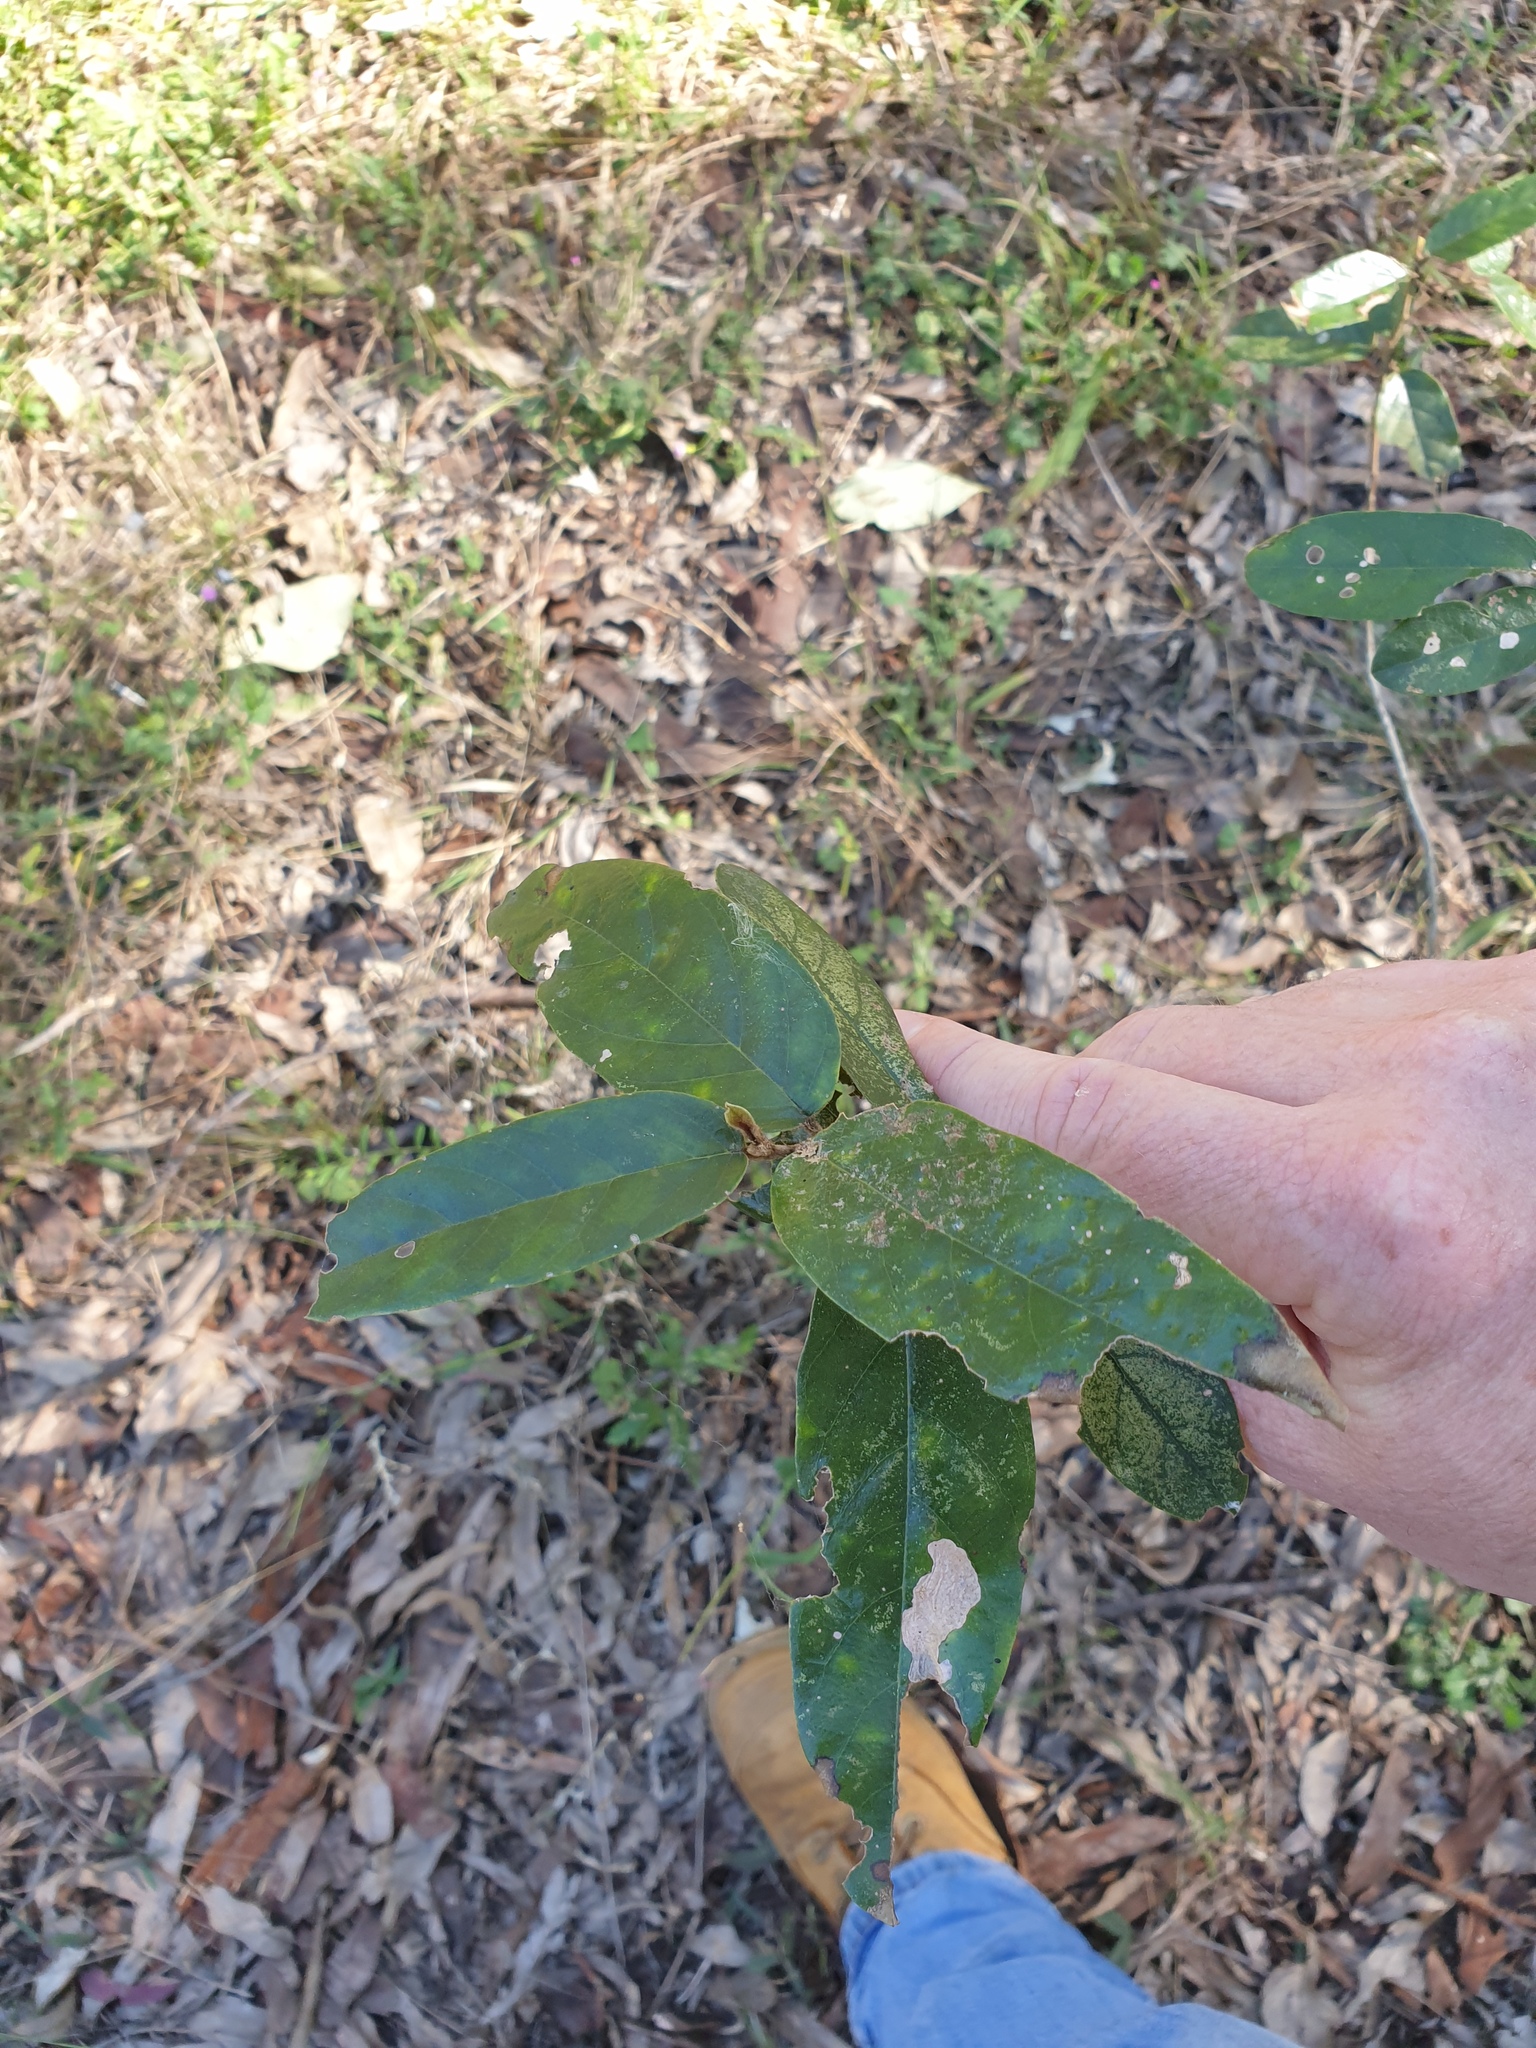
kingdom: Plantae
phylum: Tracheophyta
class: Magnoliopsida
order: Rosales
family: Rhamnaceae
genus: Alphitonia
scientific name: Alphitonia excelsa
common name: Red ash
